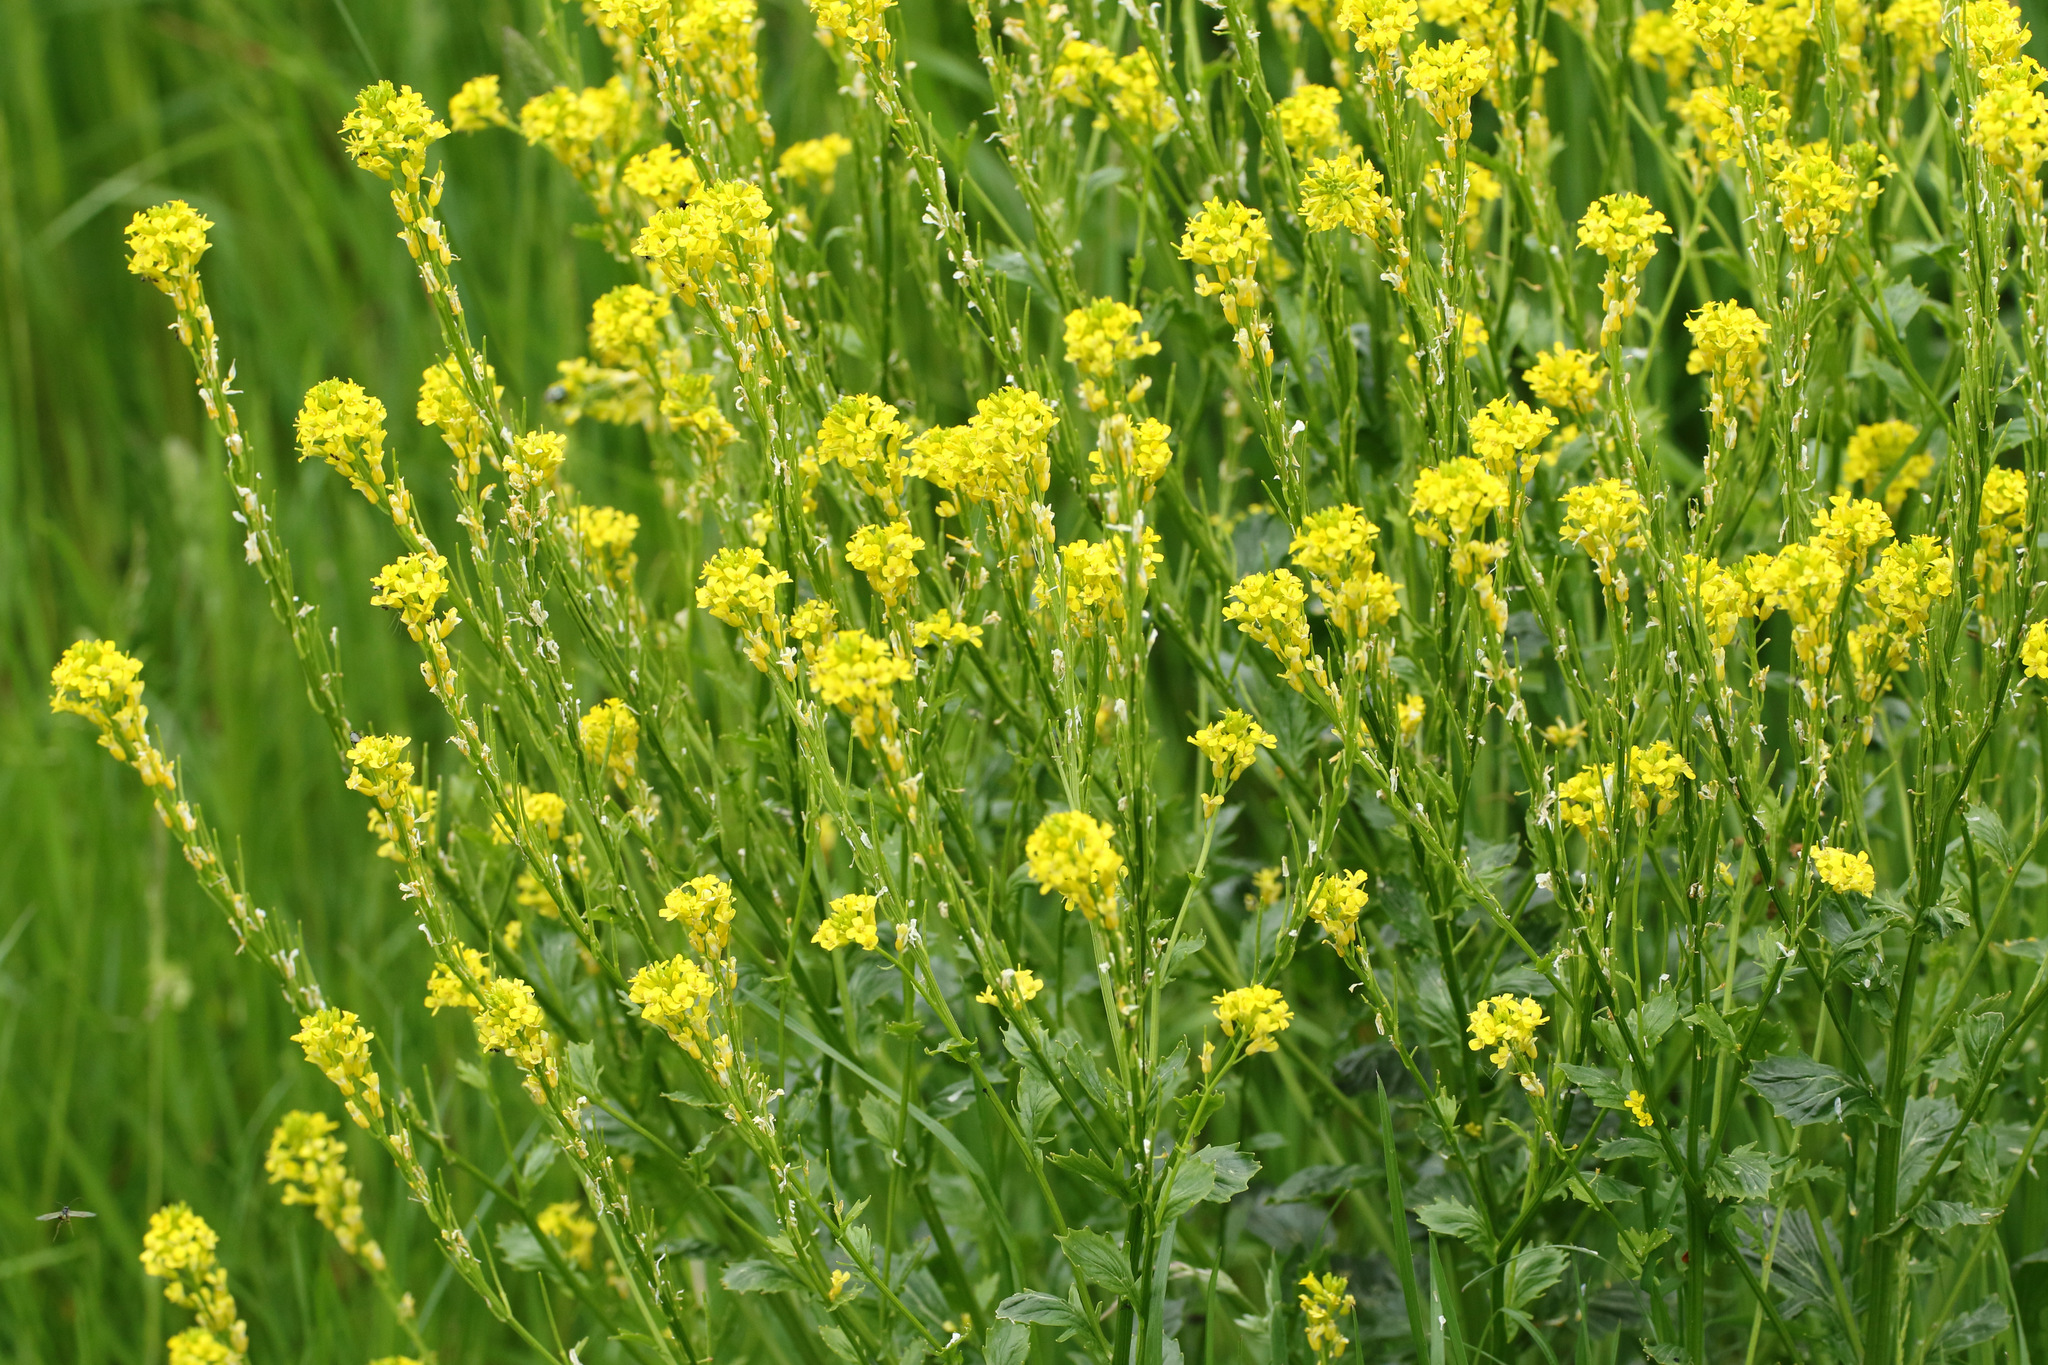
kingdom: Plantae
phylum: Tracheophyta
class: Magnoliopsida
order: Brassicales
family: Brassicaceae
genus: Barbarea
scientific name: Barbarea vulgaris
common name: Cressy-greens
